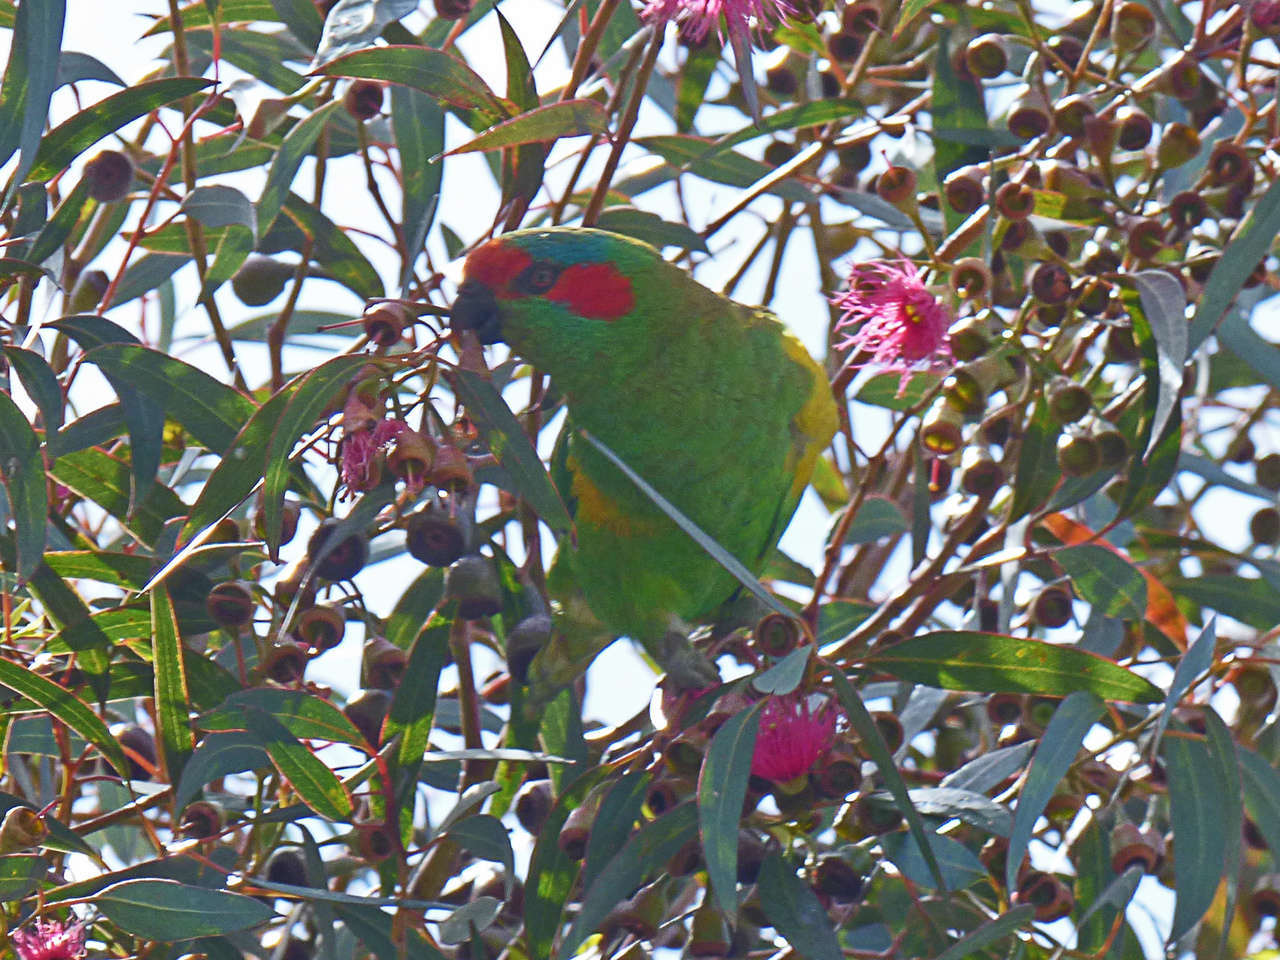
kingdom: Animalia
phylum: Chordata
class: Aves
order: Psittaciformes
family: Psittacidae
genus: Glossopsitta
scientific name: Glossopsitta concinna
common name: Musk lorikeet
